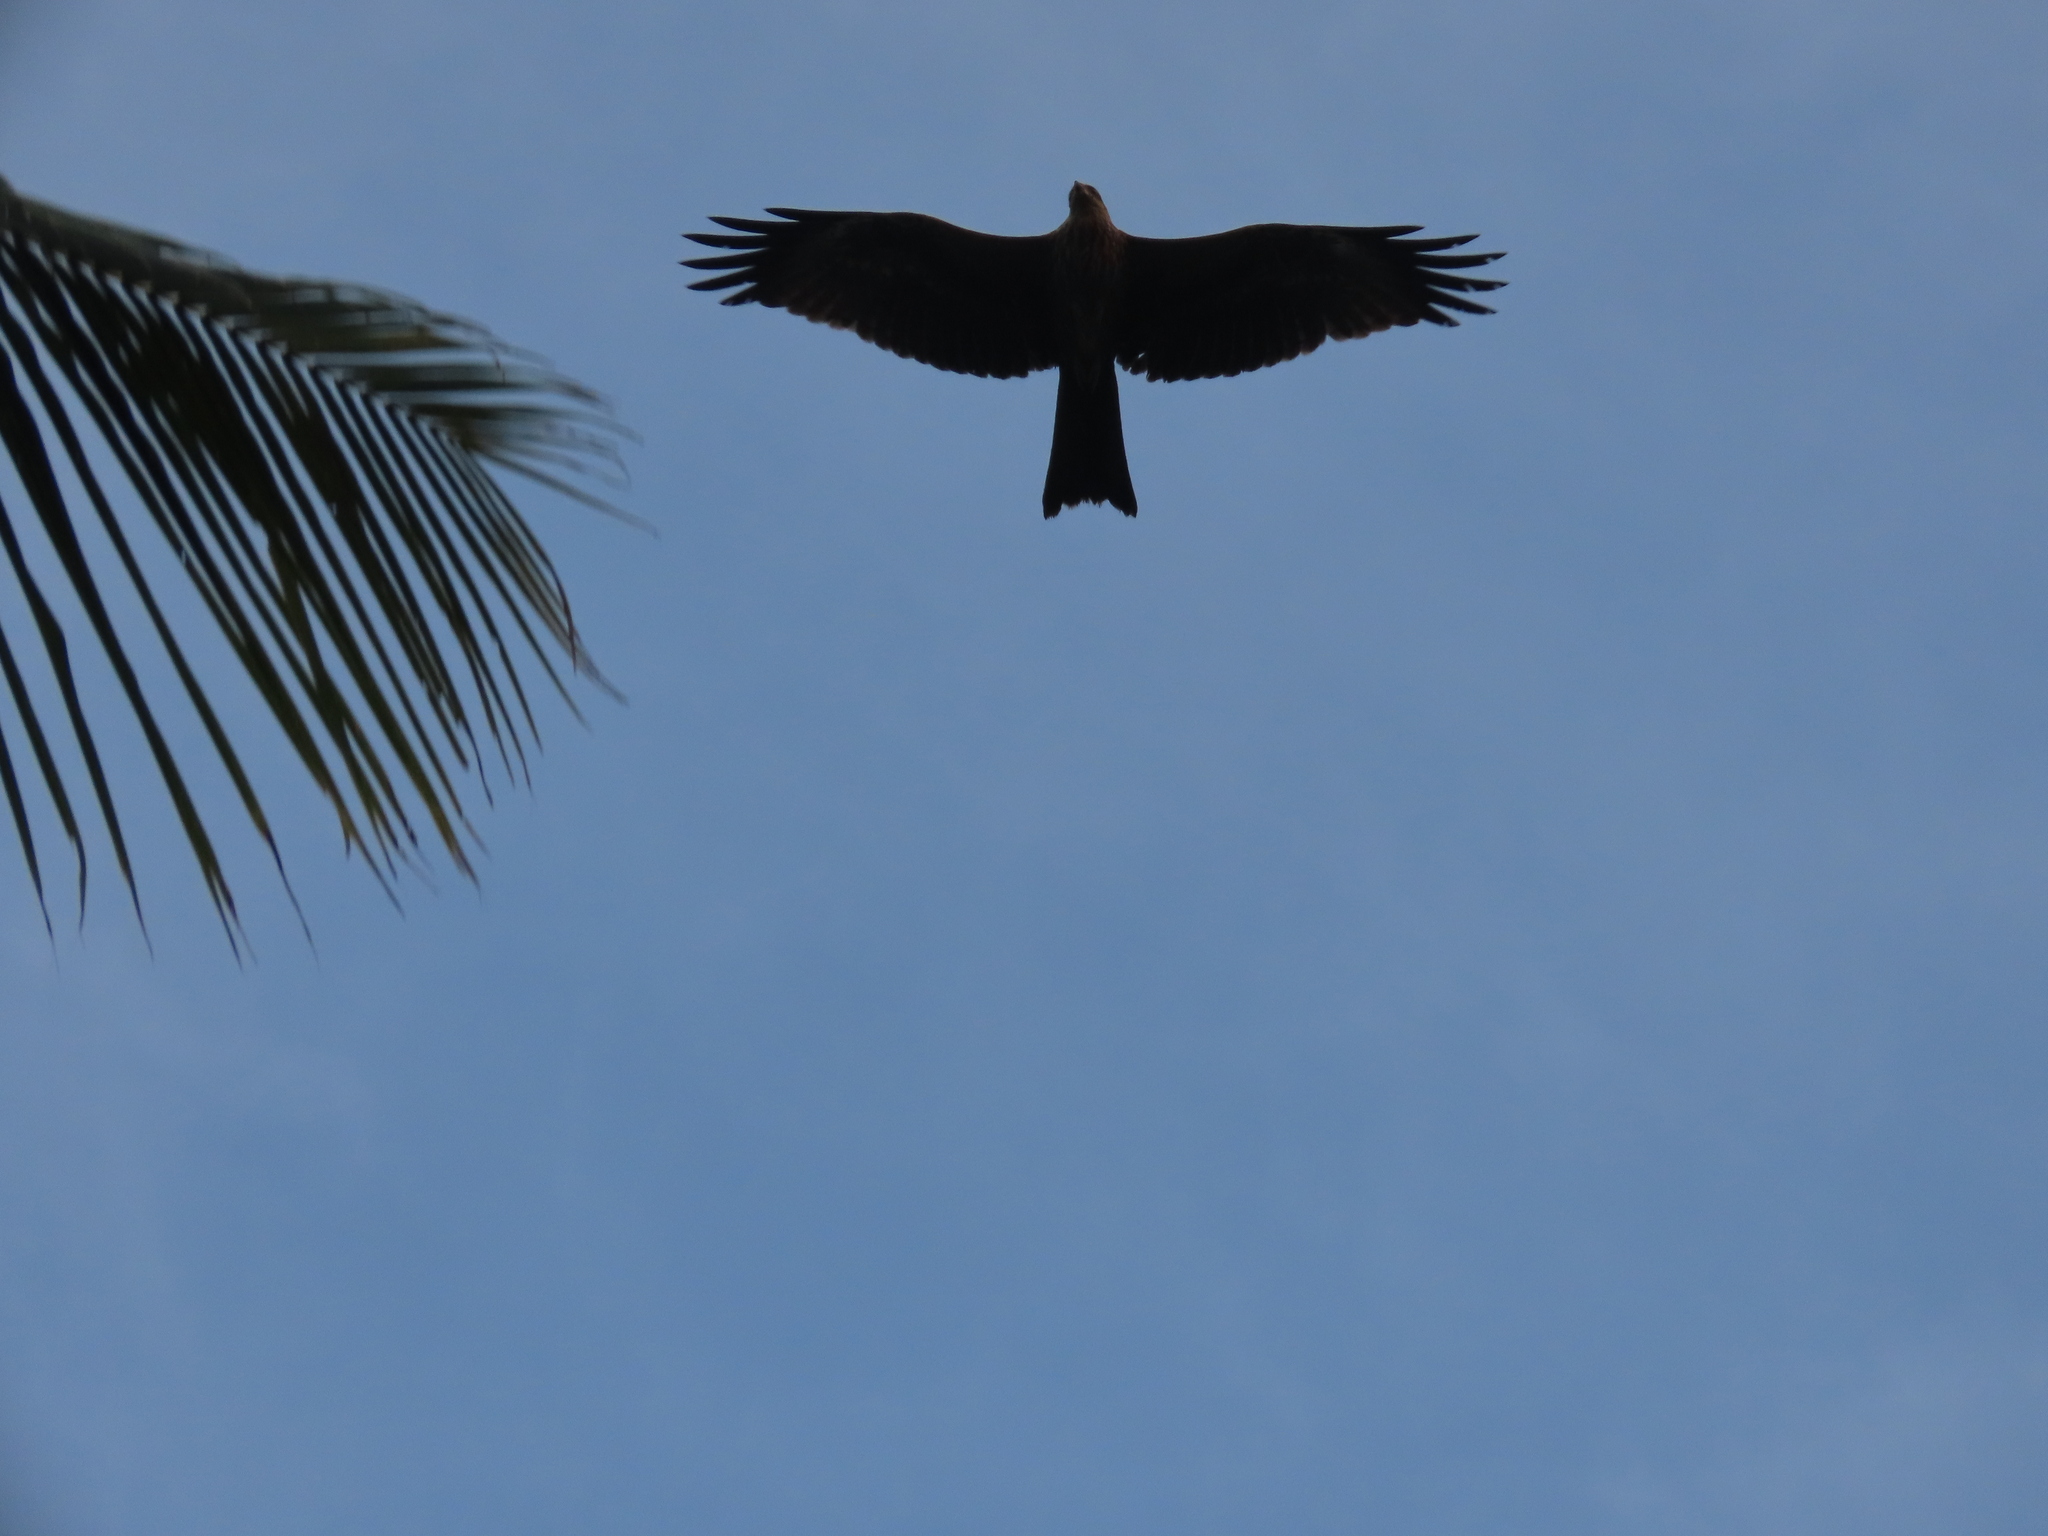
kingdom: Animalia
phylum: Chordata
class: Aves
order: Accipitriformes
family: Accipitridae
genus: Milvus
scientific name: Milvus migrans
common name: Black kite
